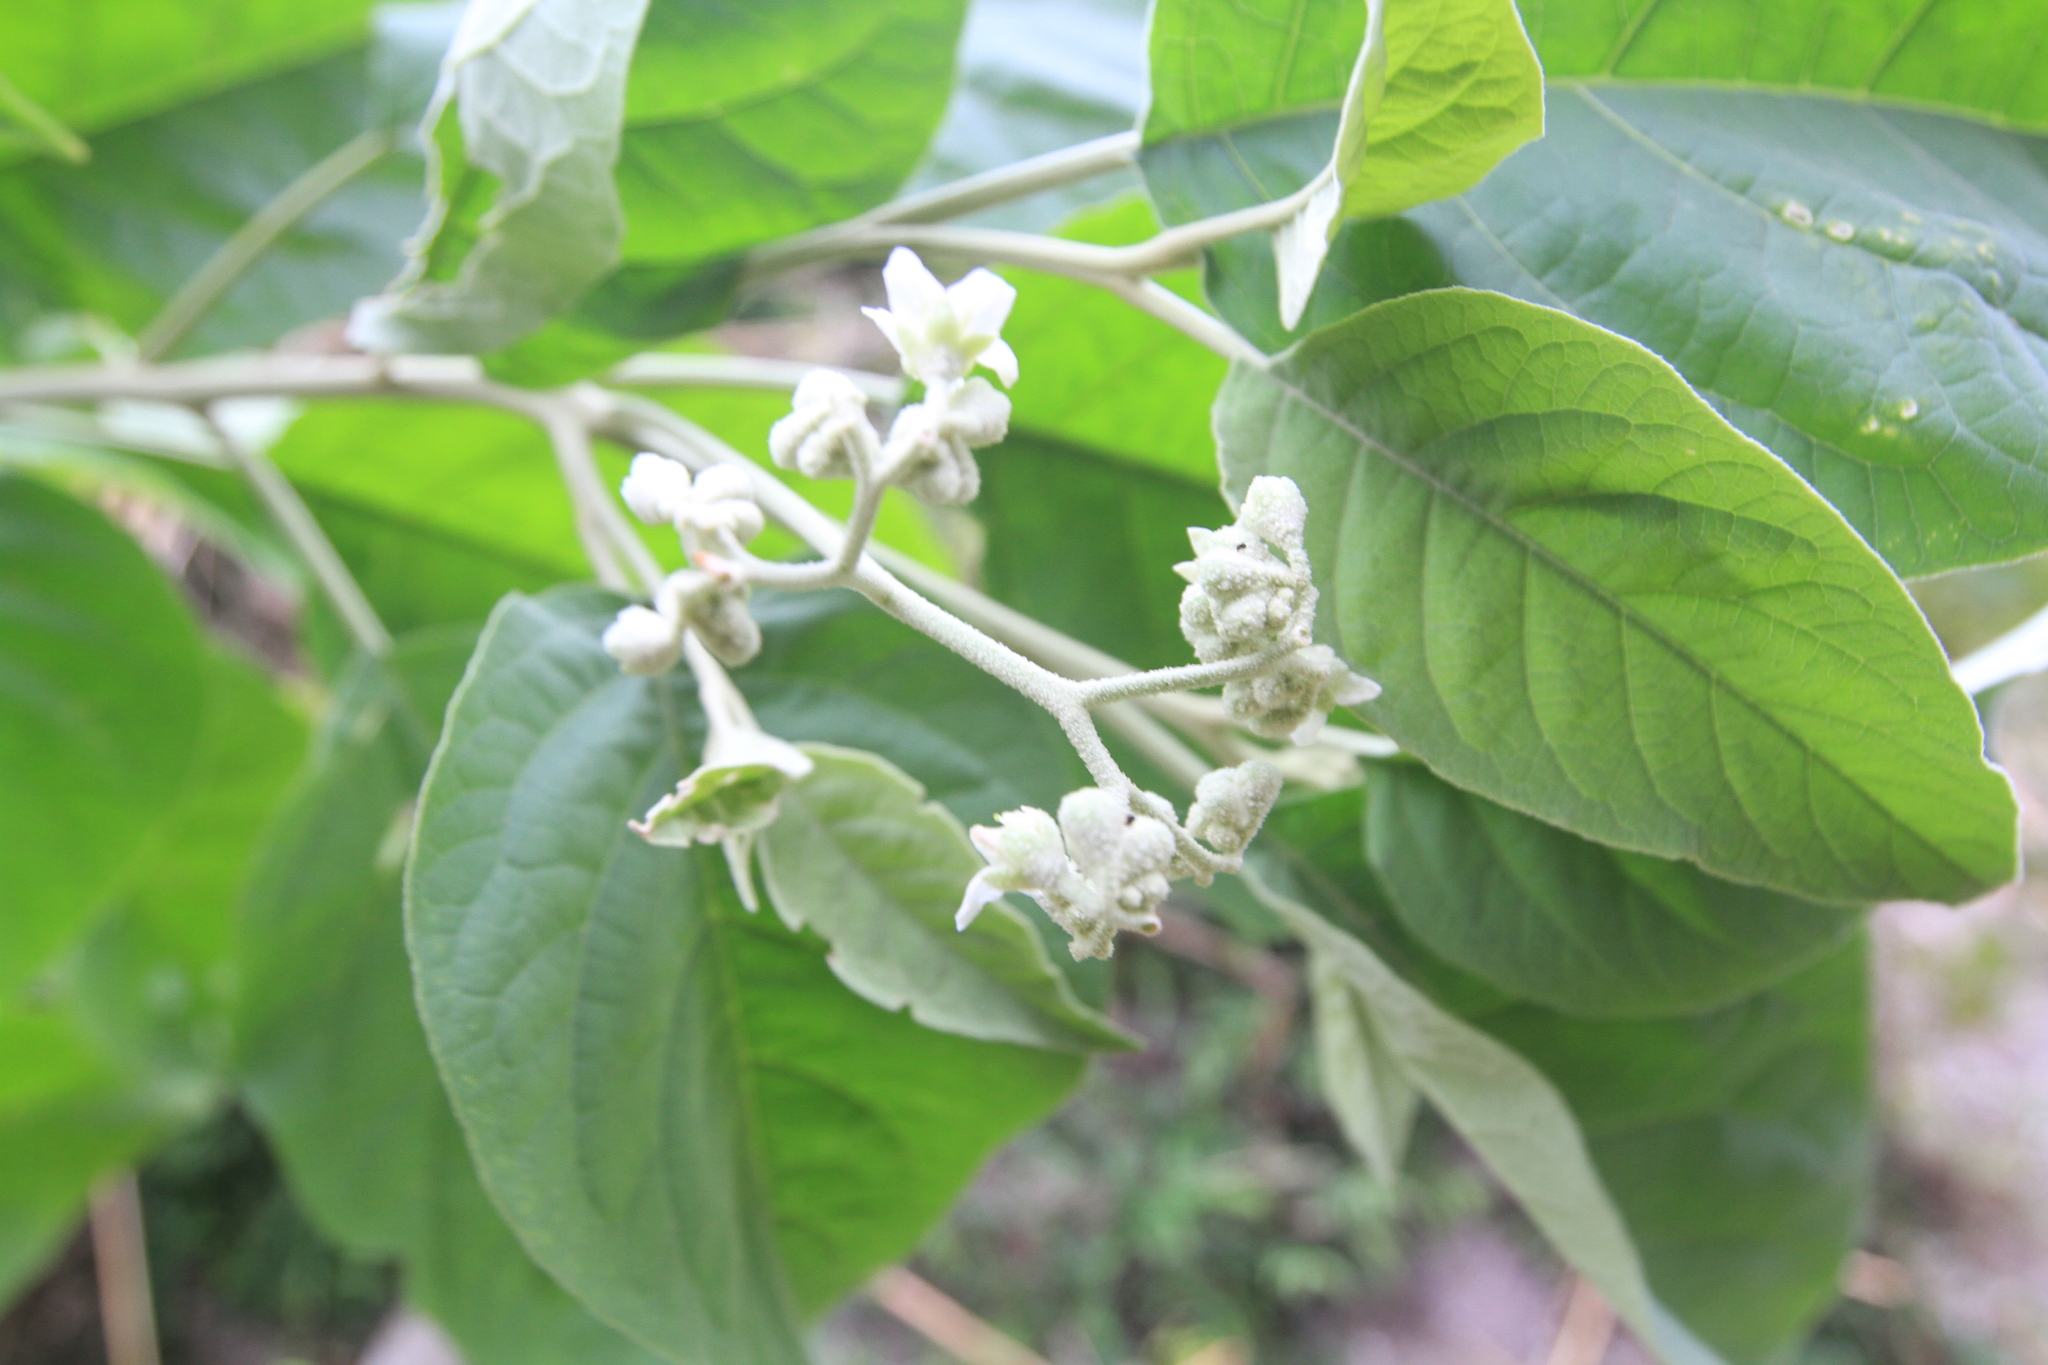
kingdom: Plantae
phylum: Tracheophyta
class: Magnoliopsida
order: Solanales
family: Solanaceae
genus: Solanum
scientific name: Solanum erianthum
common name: Tobacco-tree
